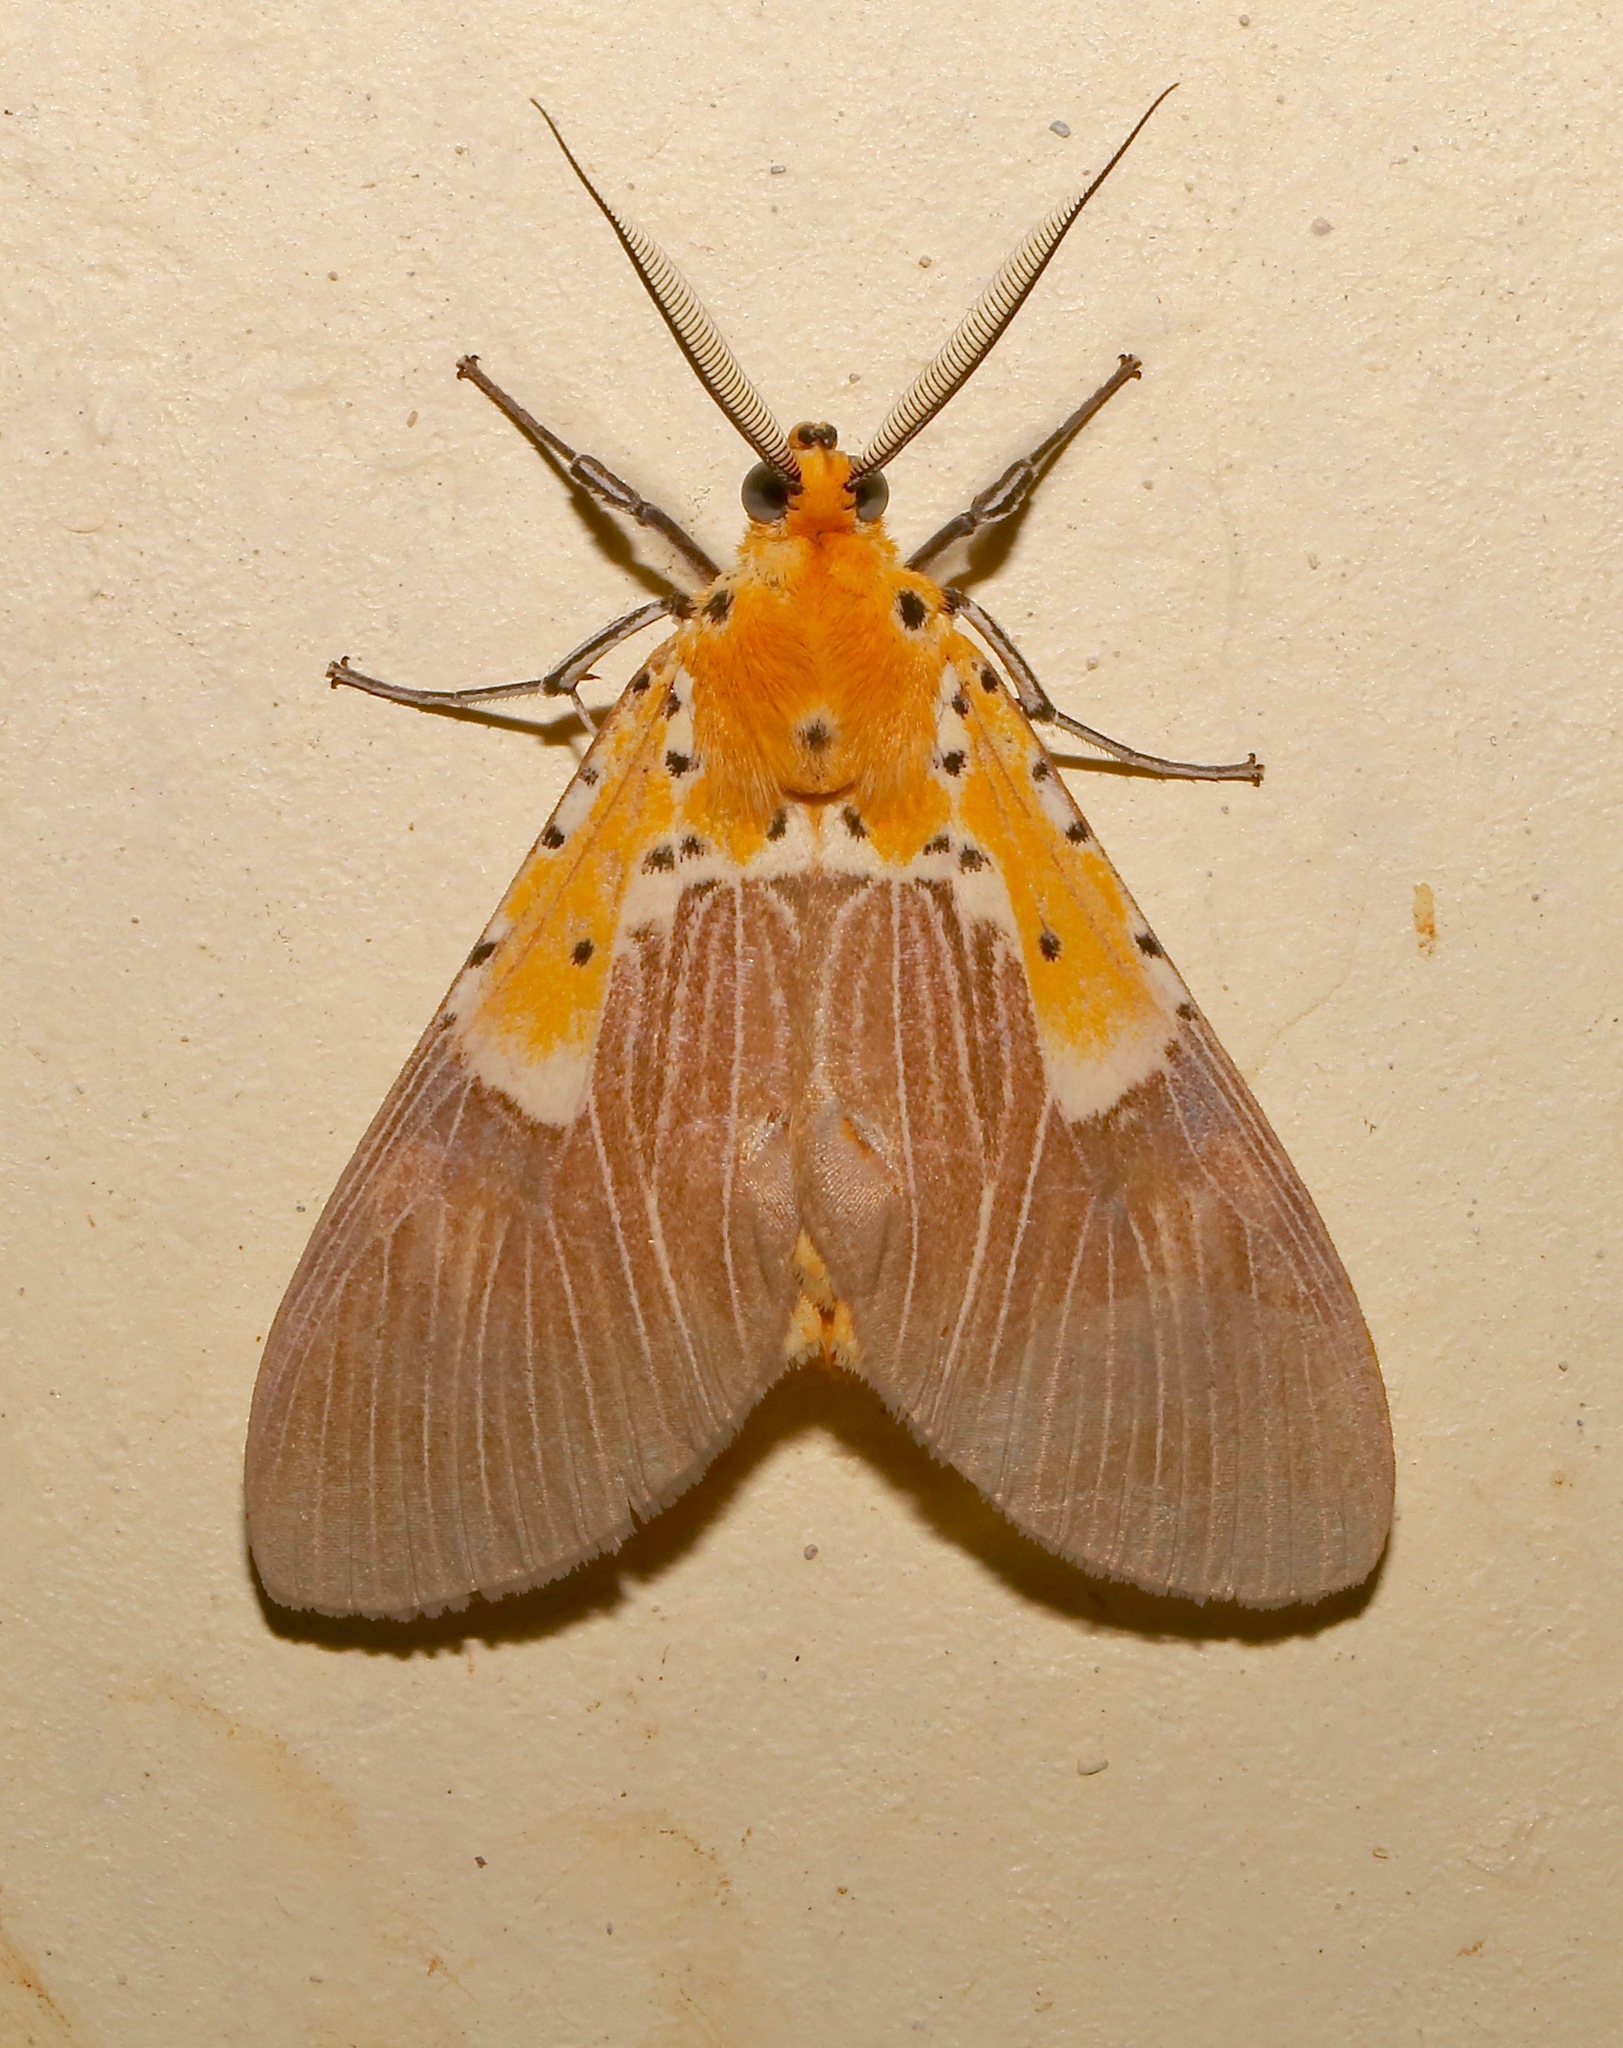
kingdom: Animalia
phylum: Arthropoda
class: Insecta
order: Lepidoptera
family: Erebidae
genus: Asota
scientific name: Asota speciosa
